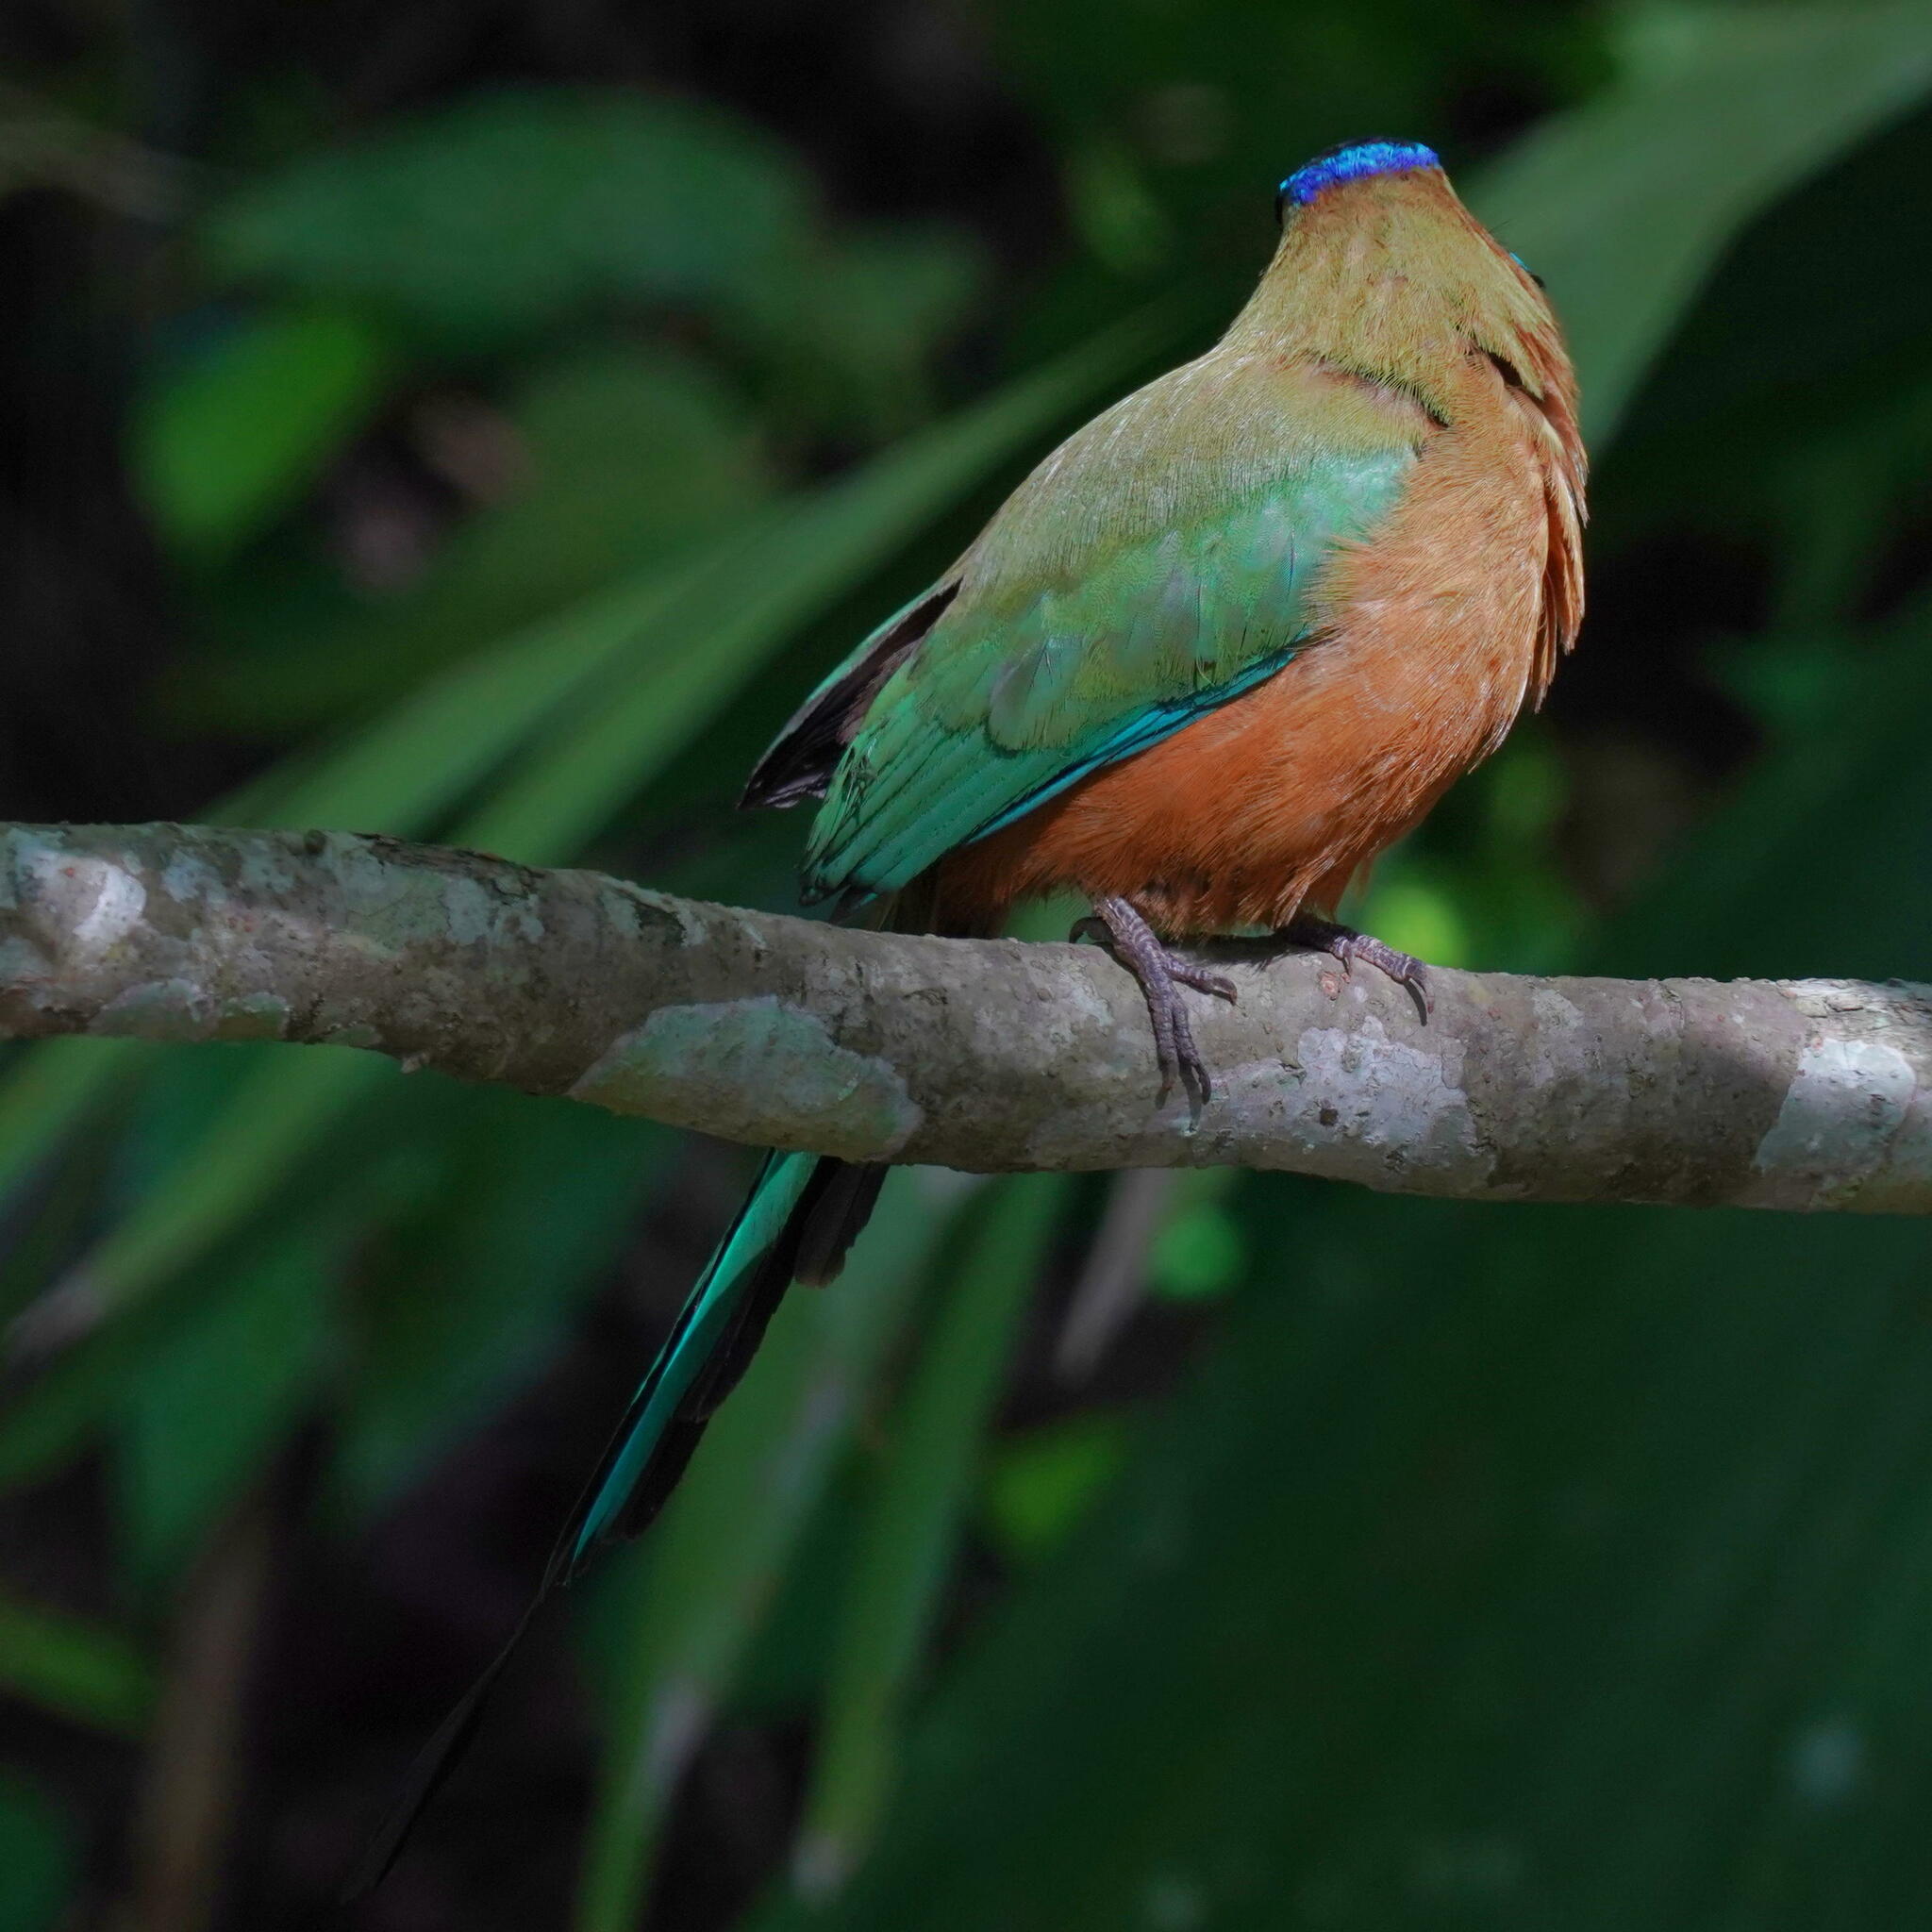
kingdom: Animalia
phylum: Chordata
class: Aves
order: Coraciiformes
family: Momotidae
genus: Momotus
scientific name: Momotus subrufescens
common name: Whooping motmot
